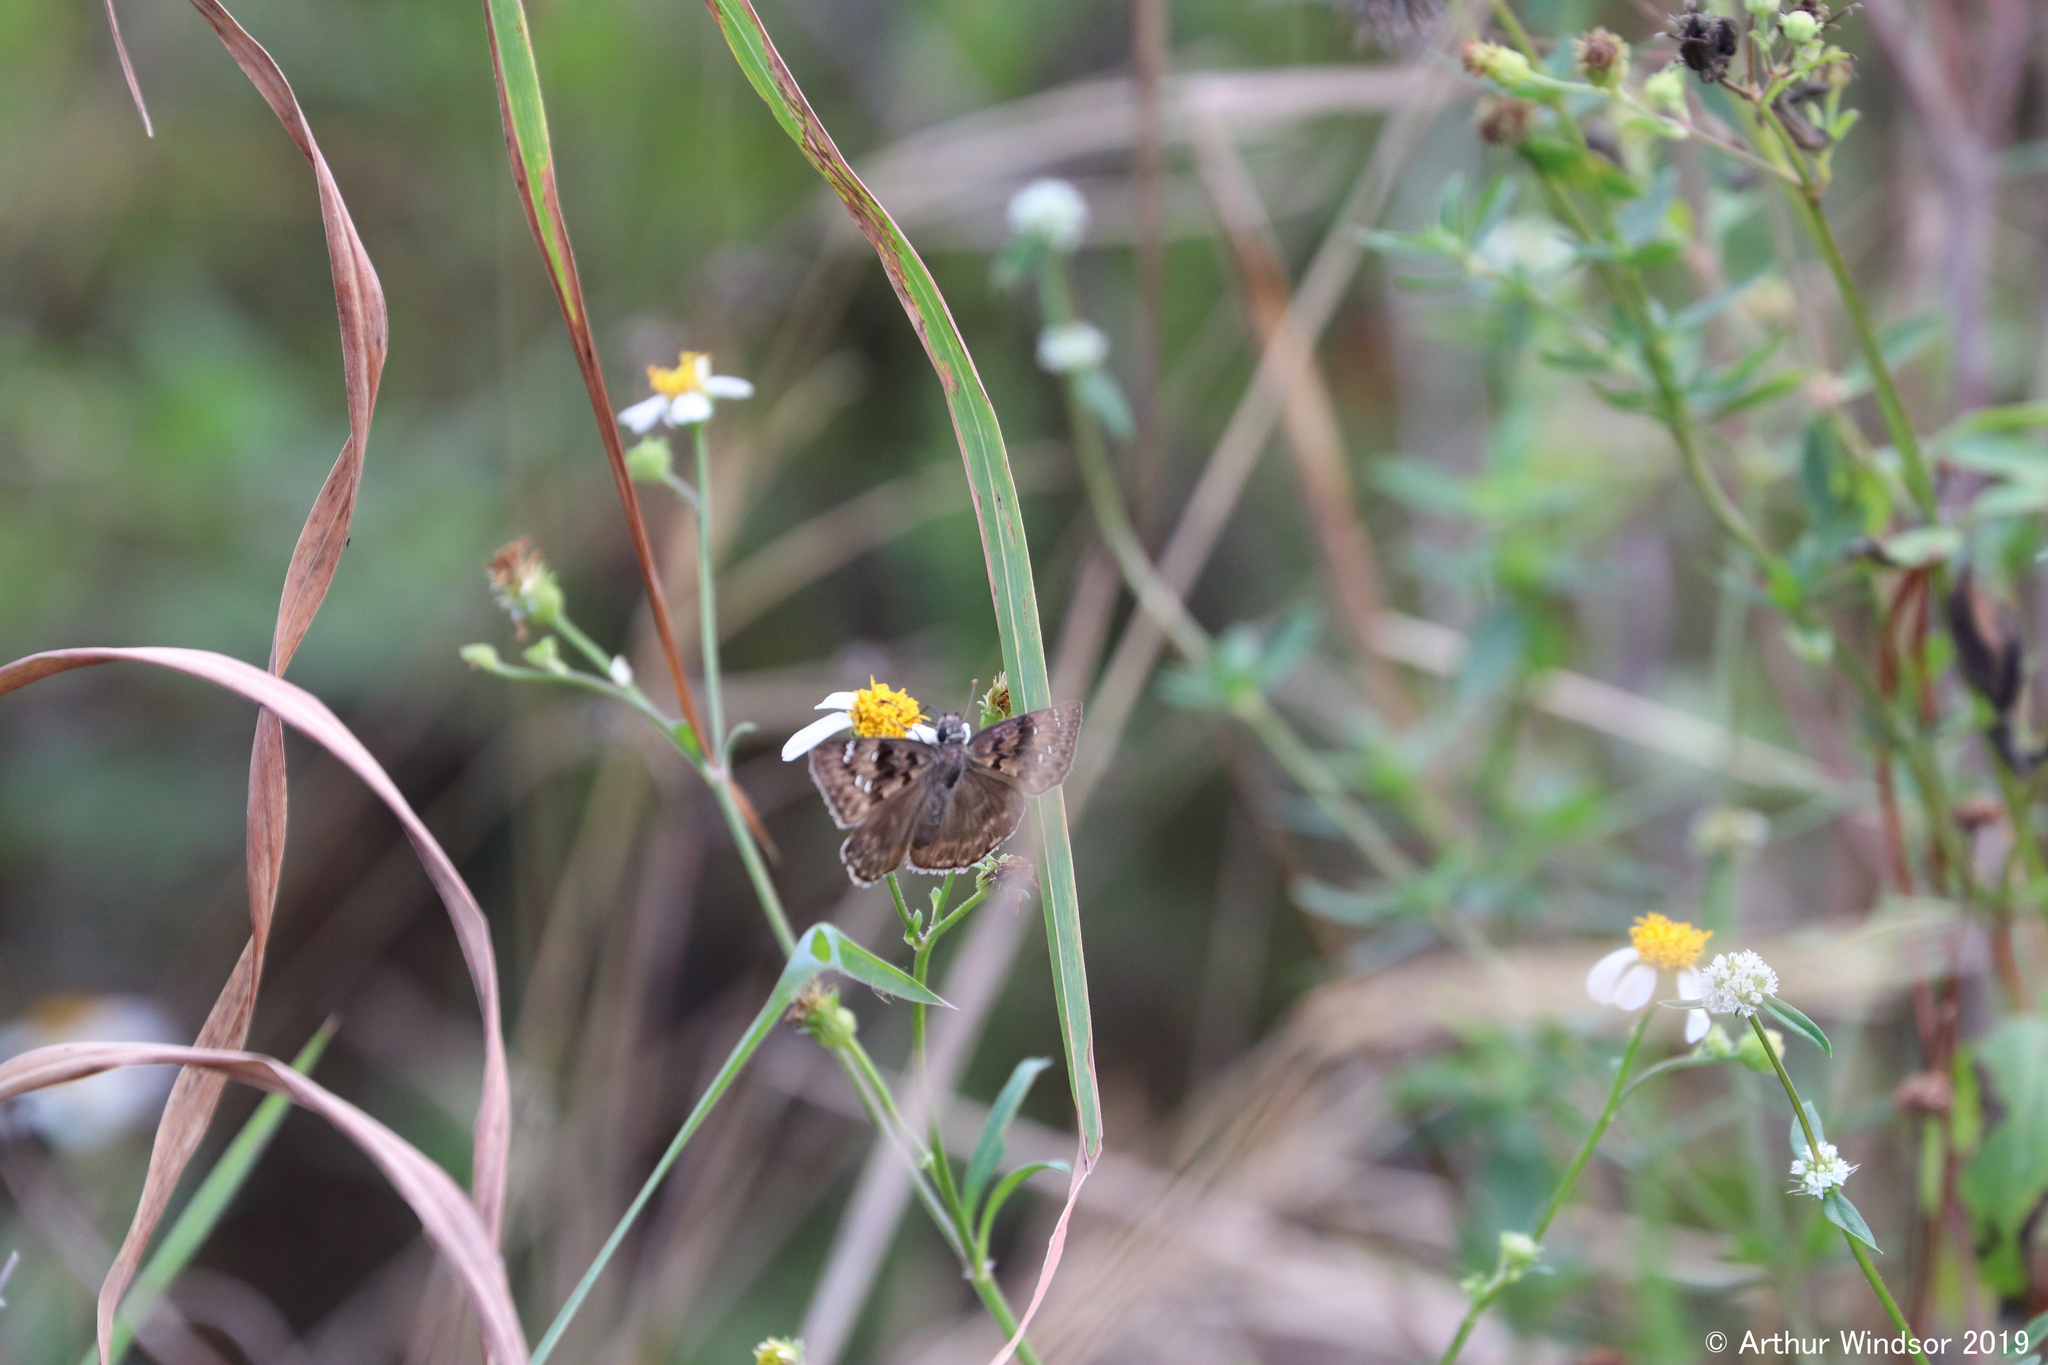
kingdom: Animalia
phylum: Arthropoda
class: Insecta
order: Lepidoptera
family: Hesperiidae
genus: Erynnis
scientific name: Erynnis horatius
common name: Horace's duskywing
